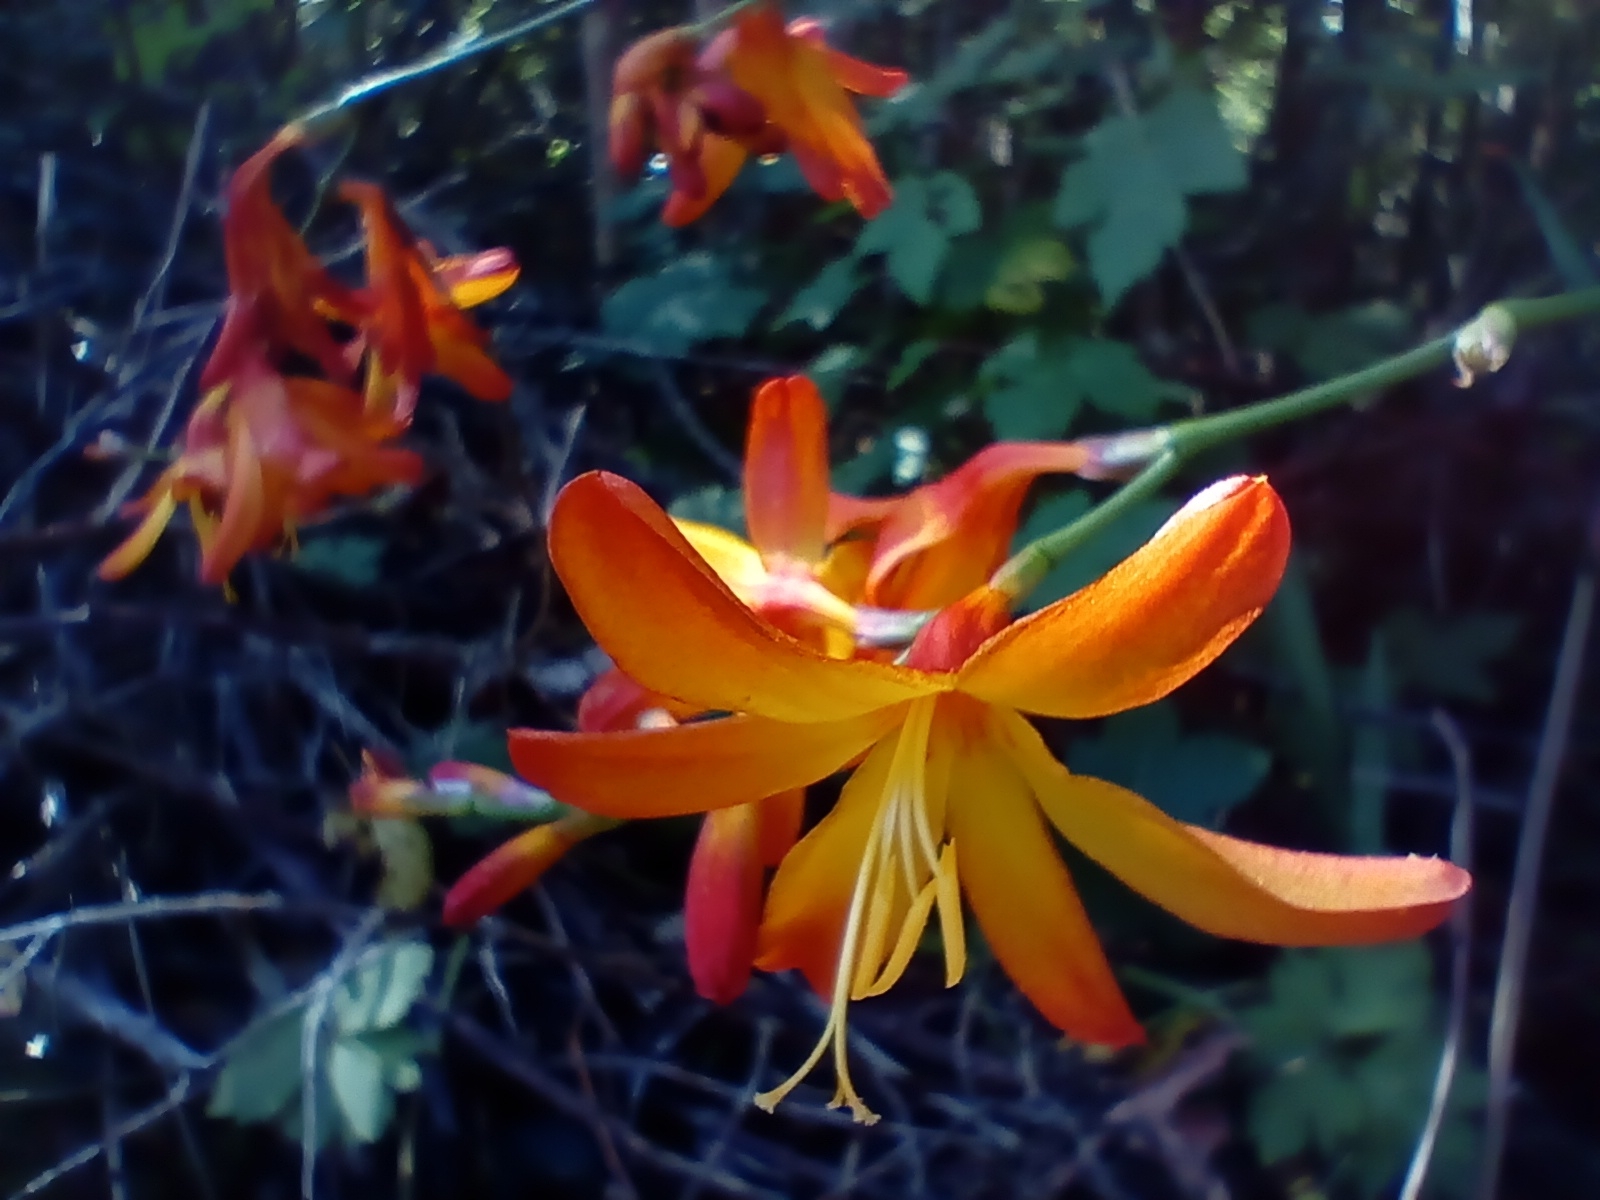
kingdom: Plantae
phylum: Tracheophyta
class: Liliopsida
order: Asparagales
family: Iridaceae
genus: Crocosmia
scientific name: Crocosmia crocosmiiflora
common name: Montbretia
